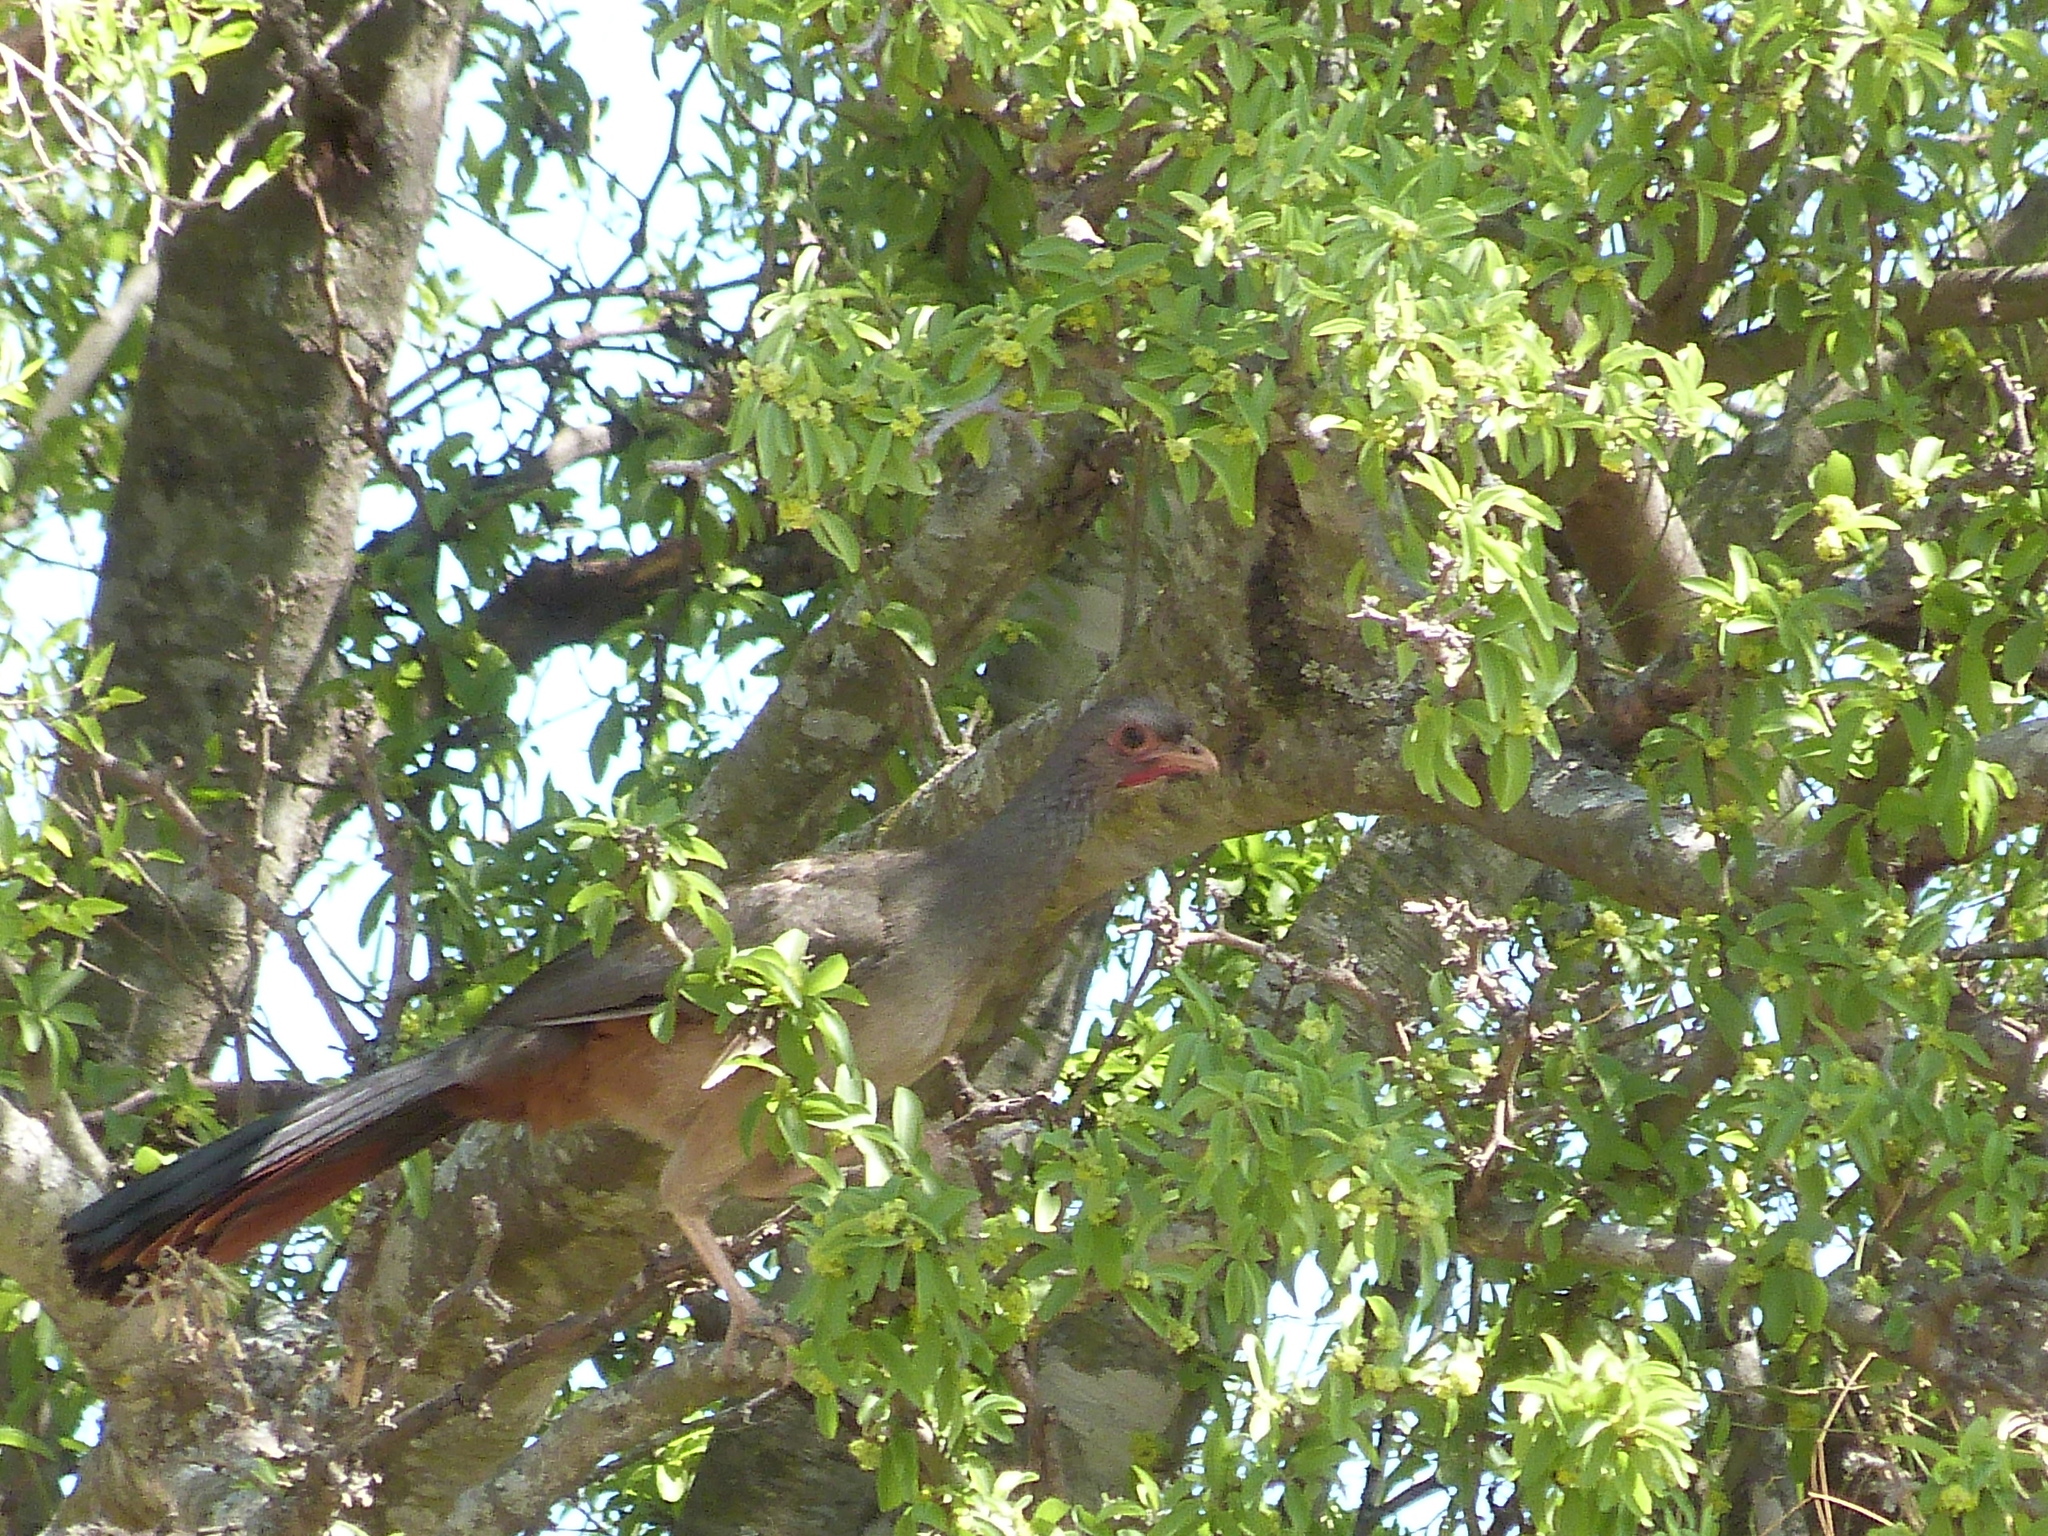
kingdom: Animalia
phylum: Chordata
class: Aves
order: Galliformes
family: Cracidae
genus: Ortalis
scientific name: Ortalis canicollis
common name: Chaco chachalaca
